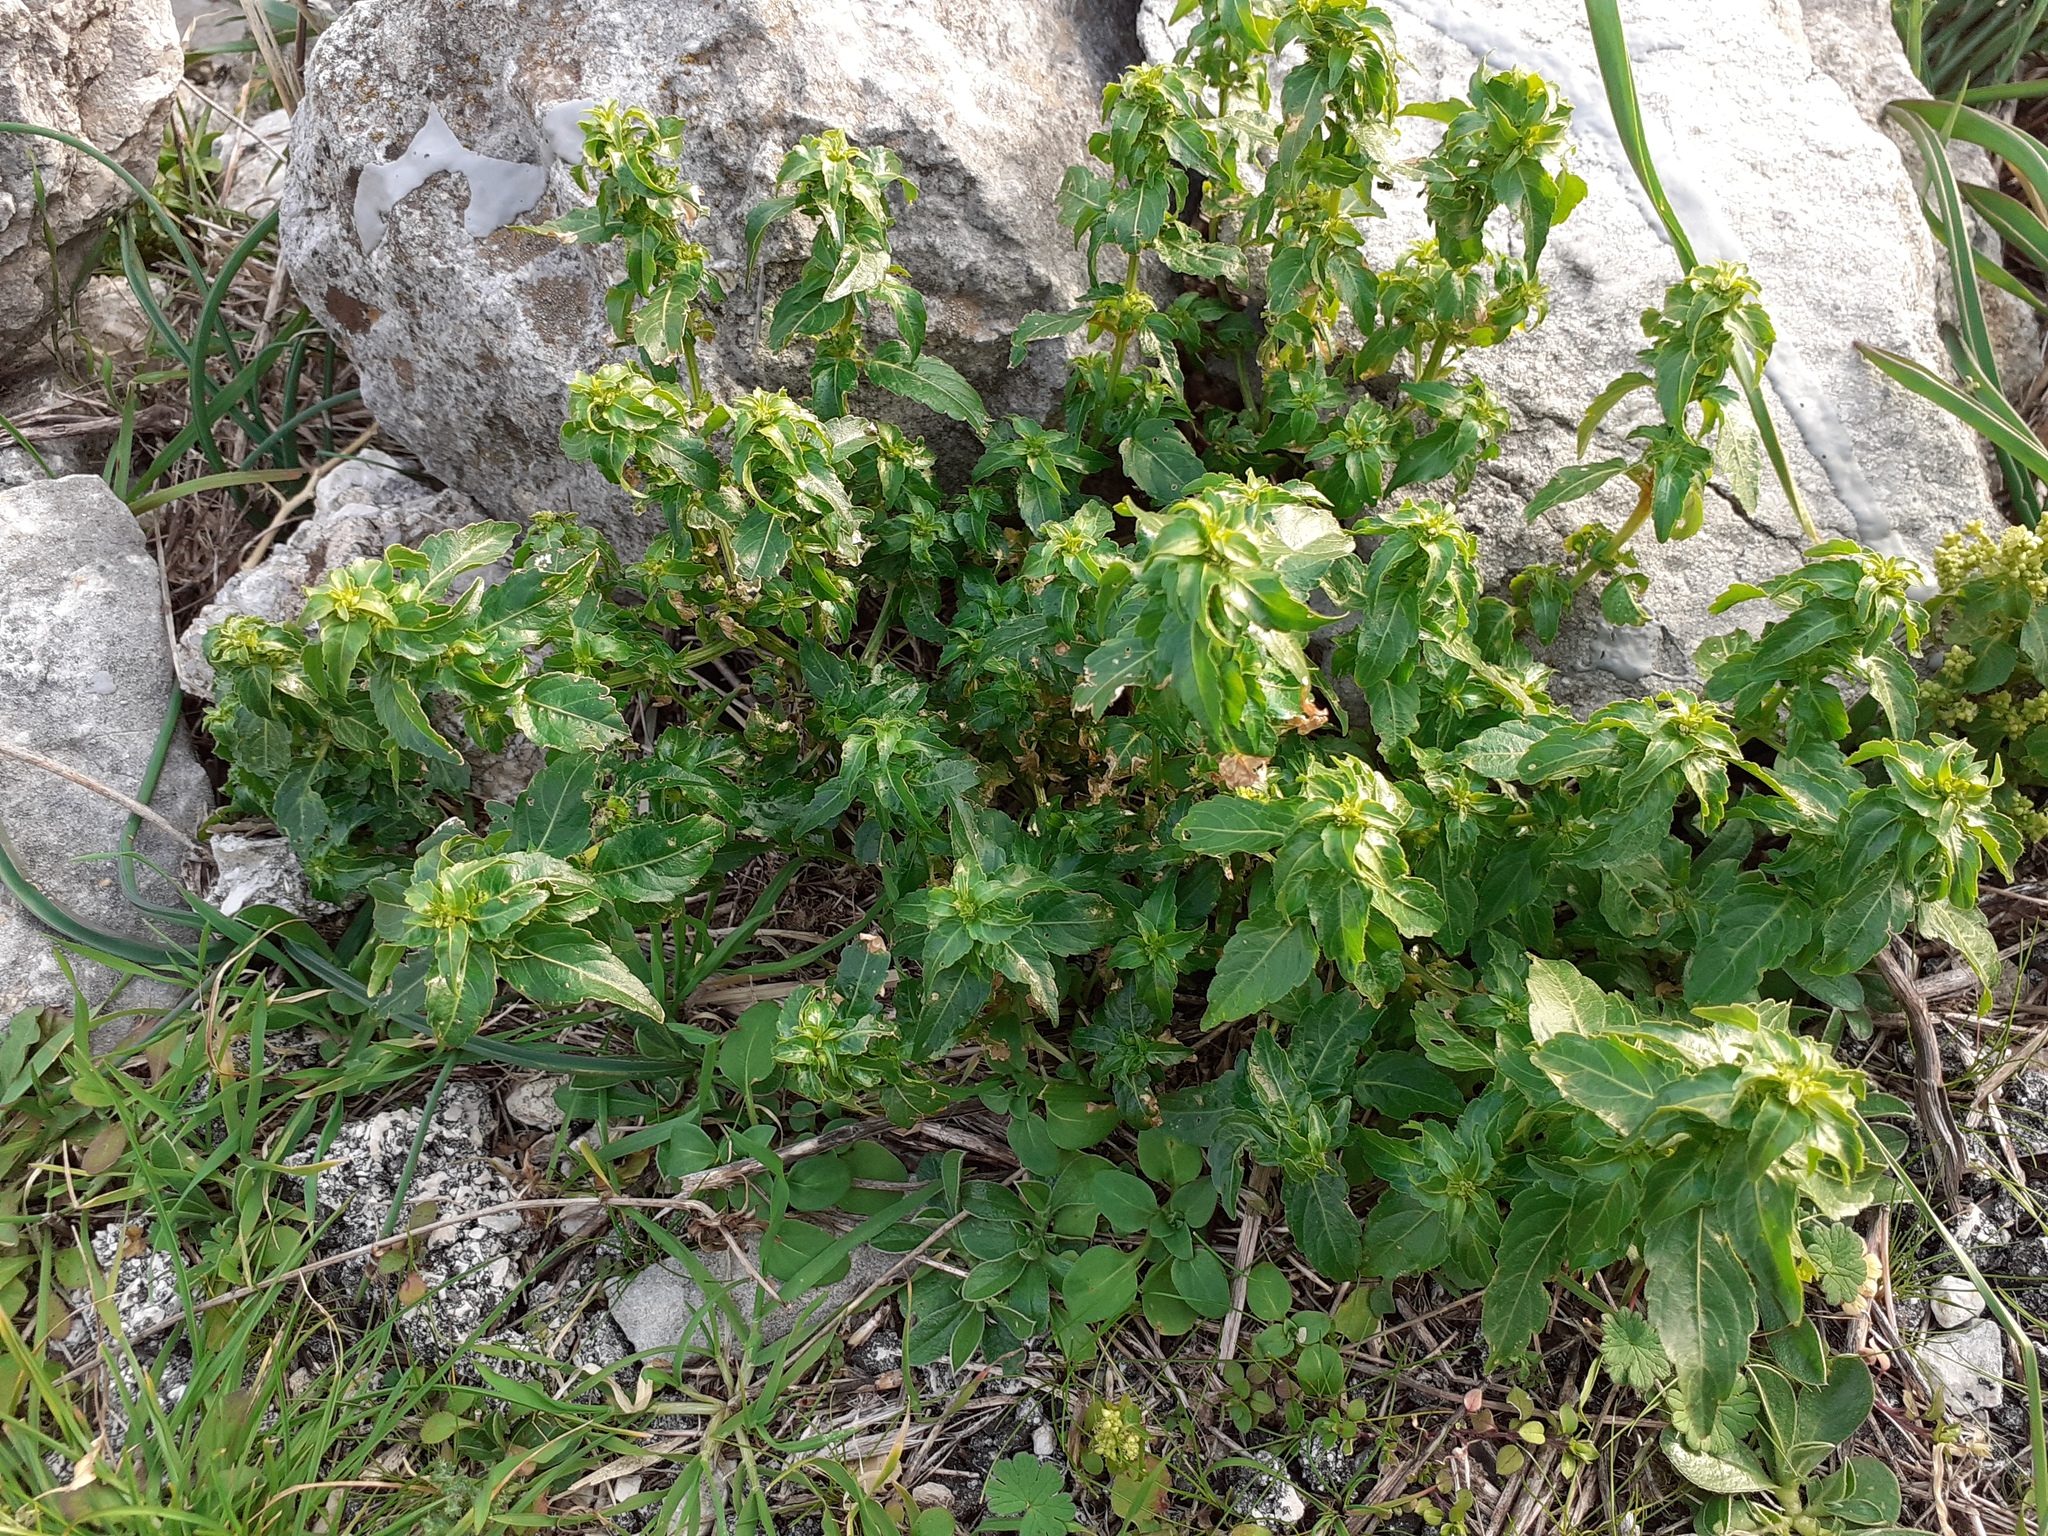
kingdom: Plantae
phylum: Tracheophyta
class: Magnoliopsida
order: Malpighiales
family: Euphorbiaceae
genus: Mercurialis
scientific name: Mercurialis annua
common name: Annual mercury
